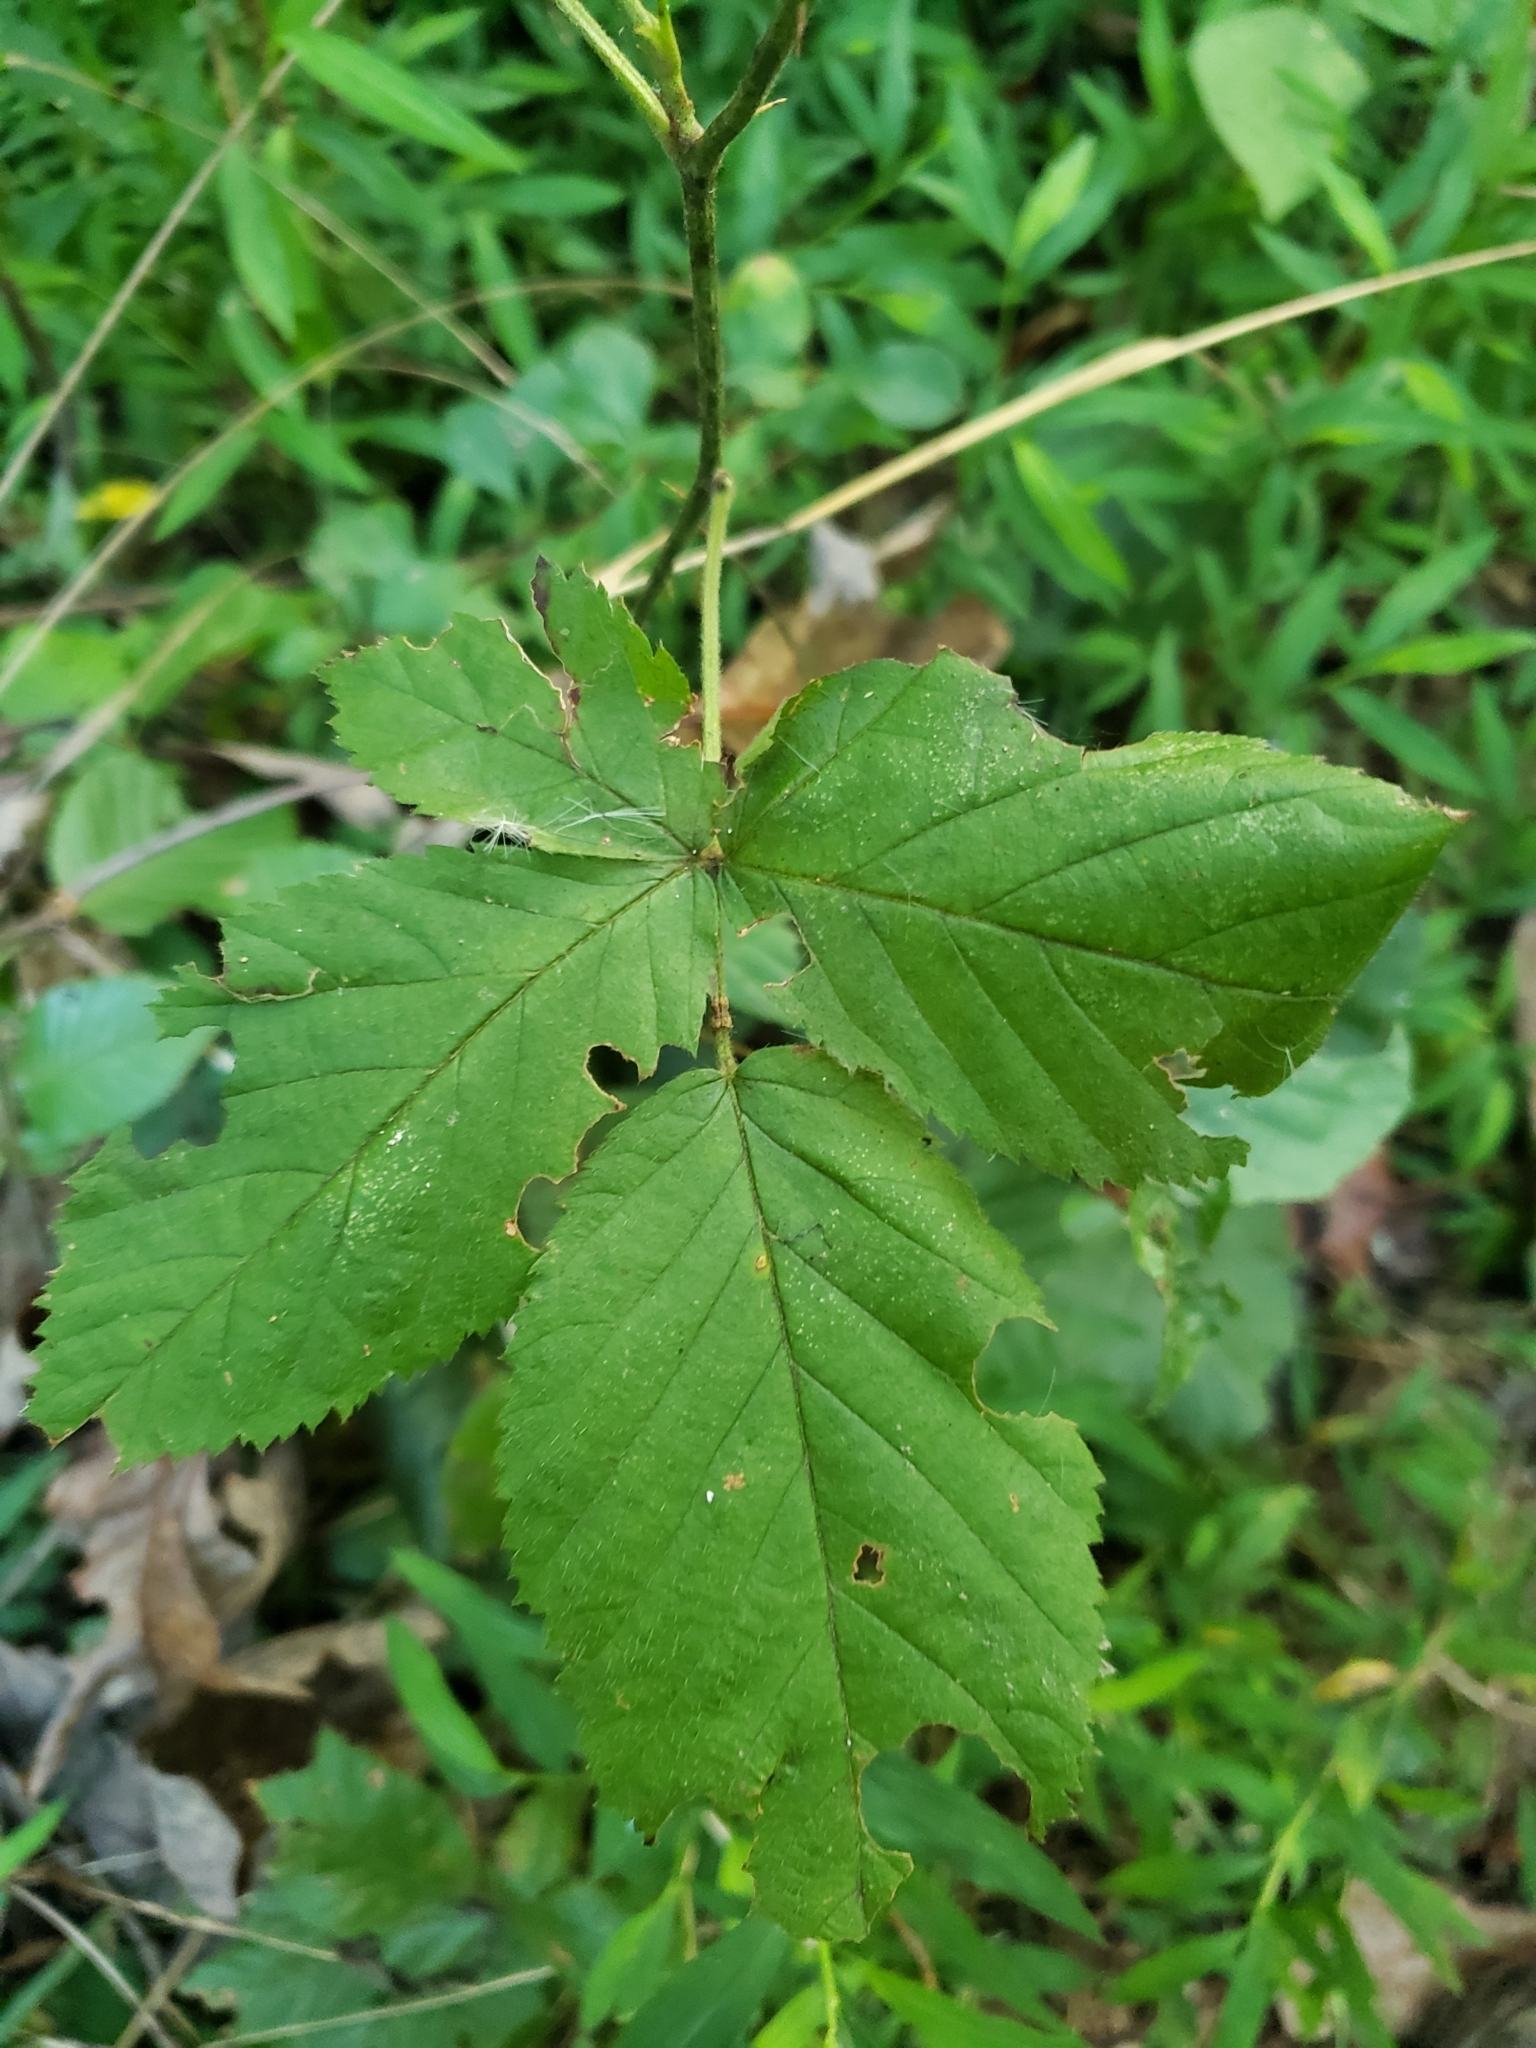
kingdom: Animalia
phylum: Arthropoda
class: Insecta
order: Lepidoptera
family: Erebidae
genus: Halysidota
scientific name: Halysidota tessellaris
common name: Banded tussock moth
